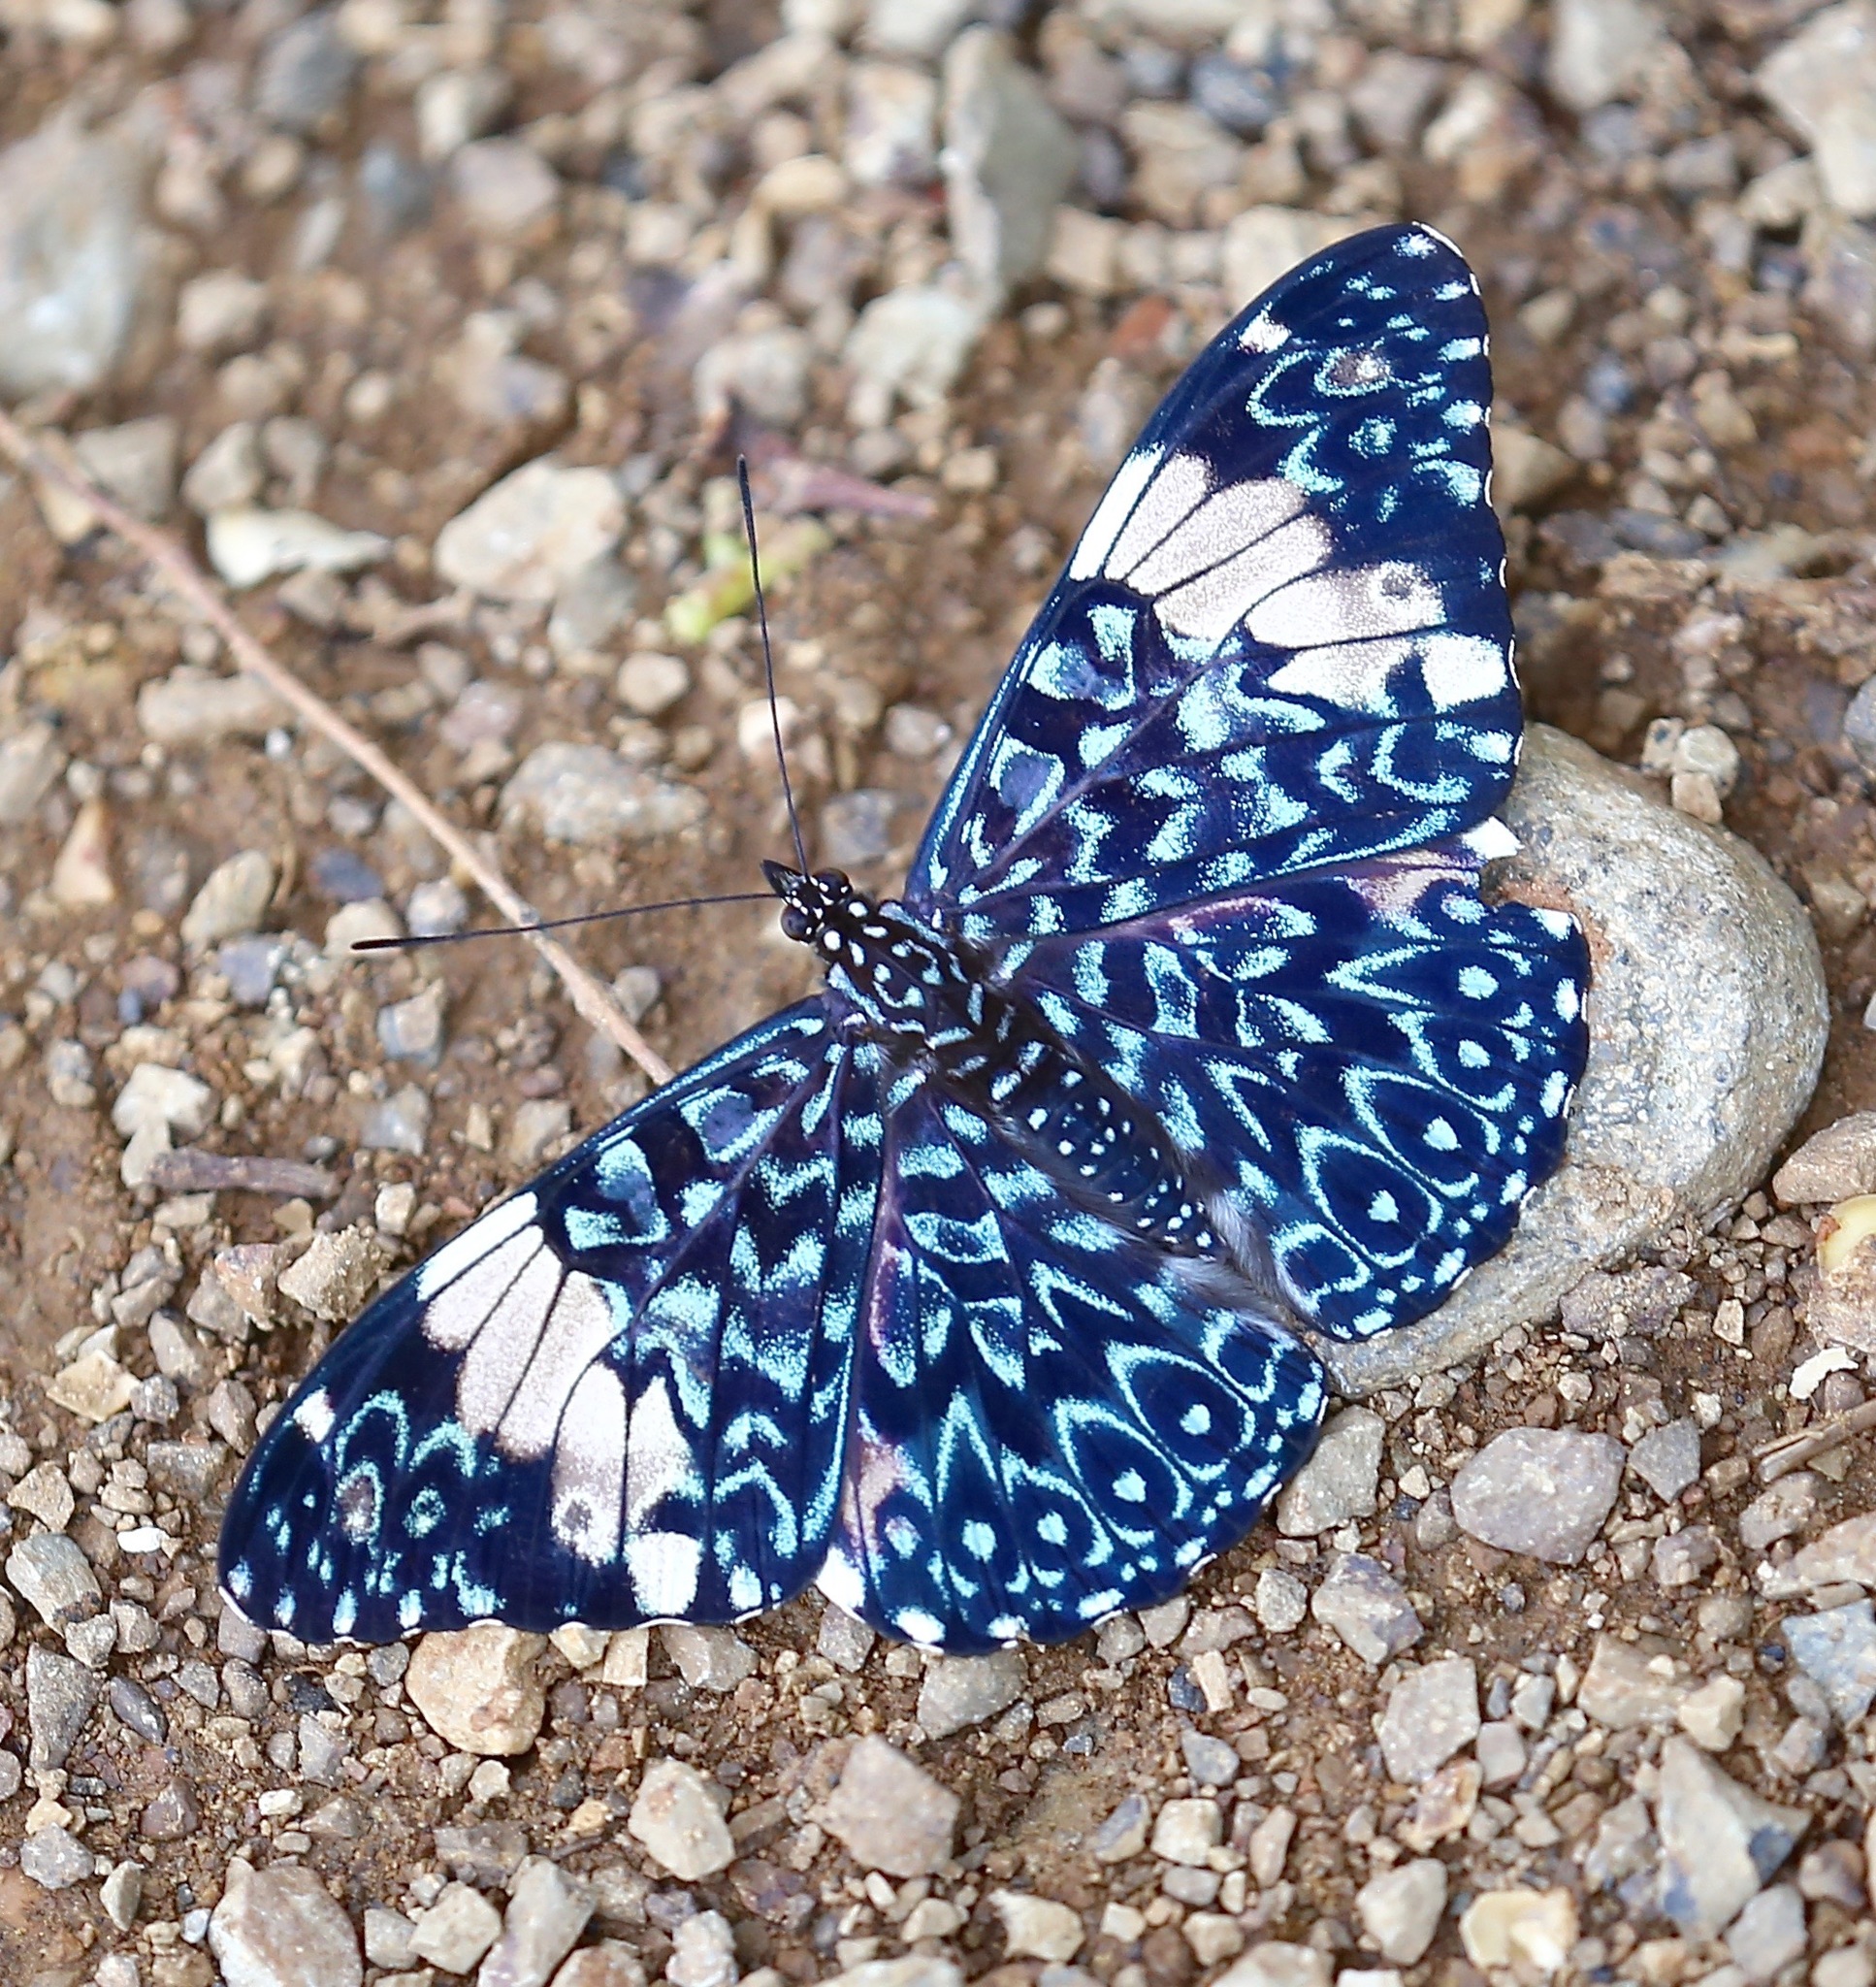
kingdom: Animalia
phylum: Arthropoda
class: Insecta
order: Lepidoptera
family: Nymphalidae
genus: Hamadryas
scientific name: Hamadryas amphinome
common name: Red cracker
